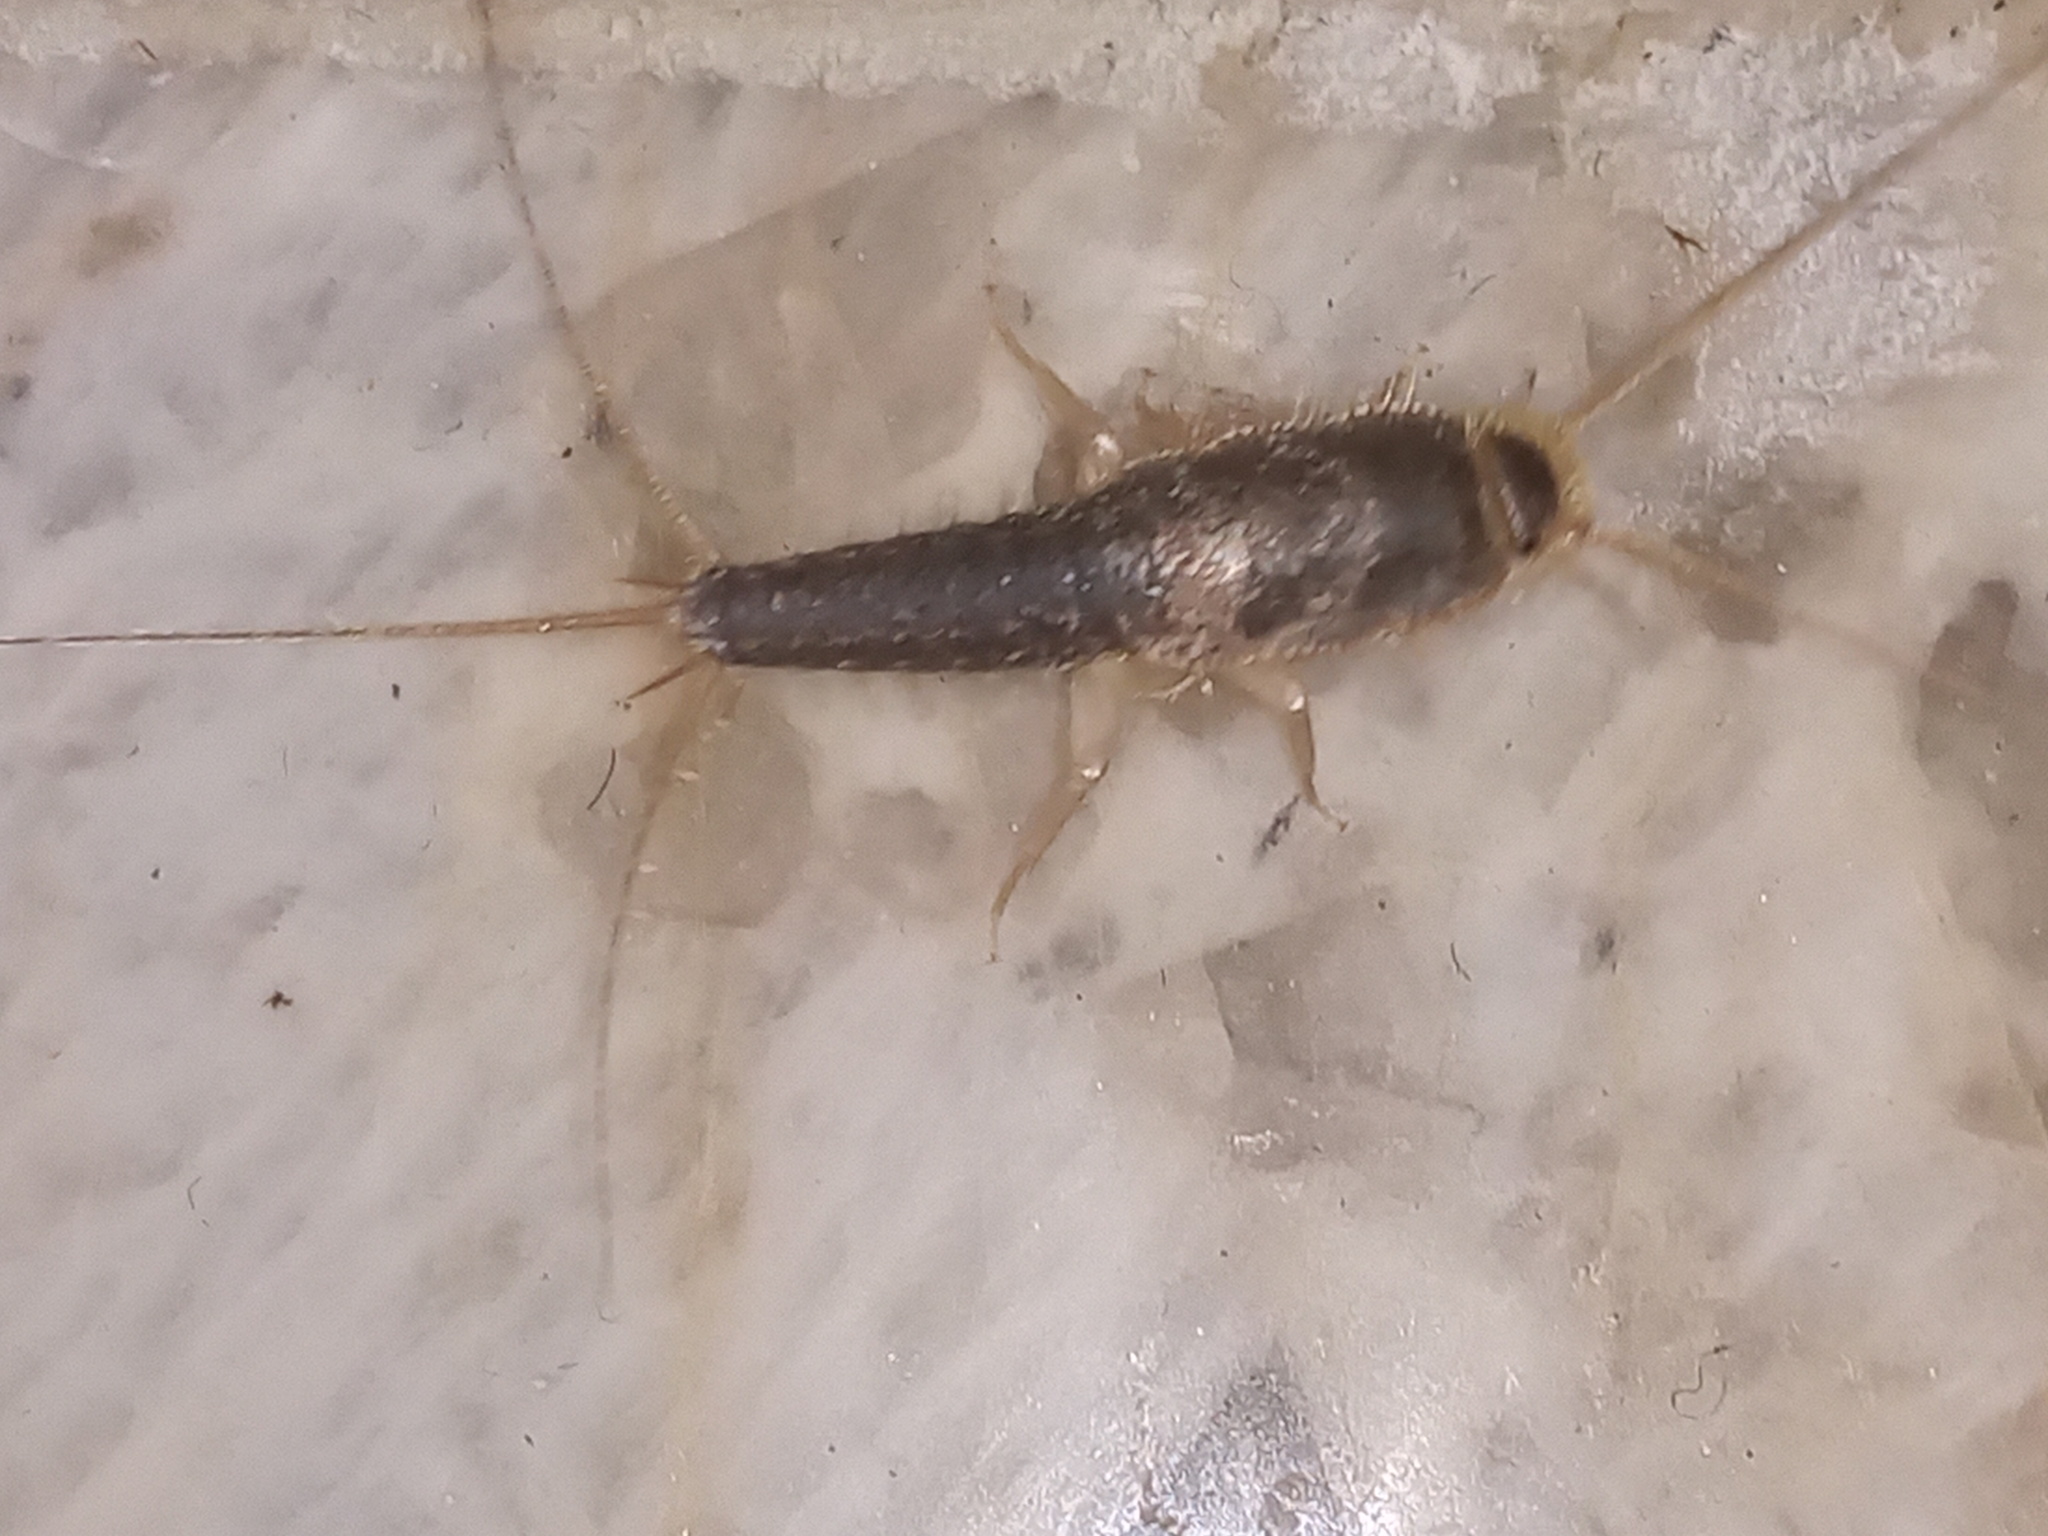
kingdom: Animalia
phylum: Arthropoda
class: Insecta
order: Zygentoma
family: Lepismatidae
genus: Ctenolepisma
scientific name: Ctenolepisma longicaudatum
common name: Silverfish
